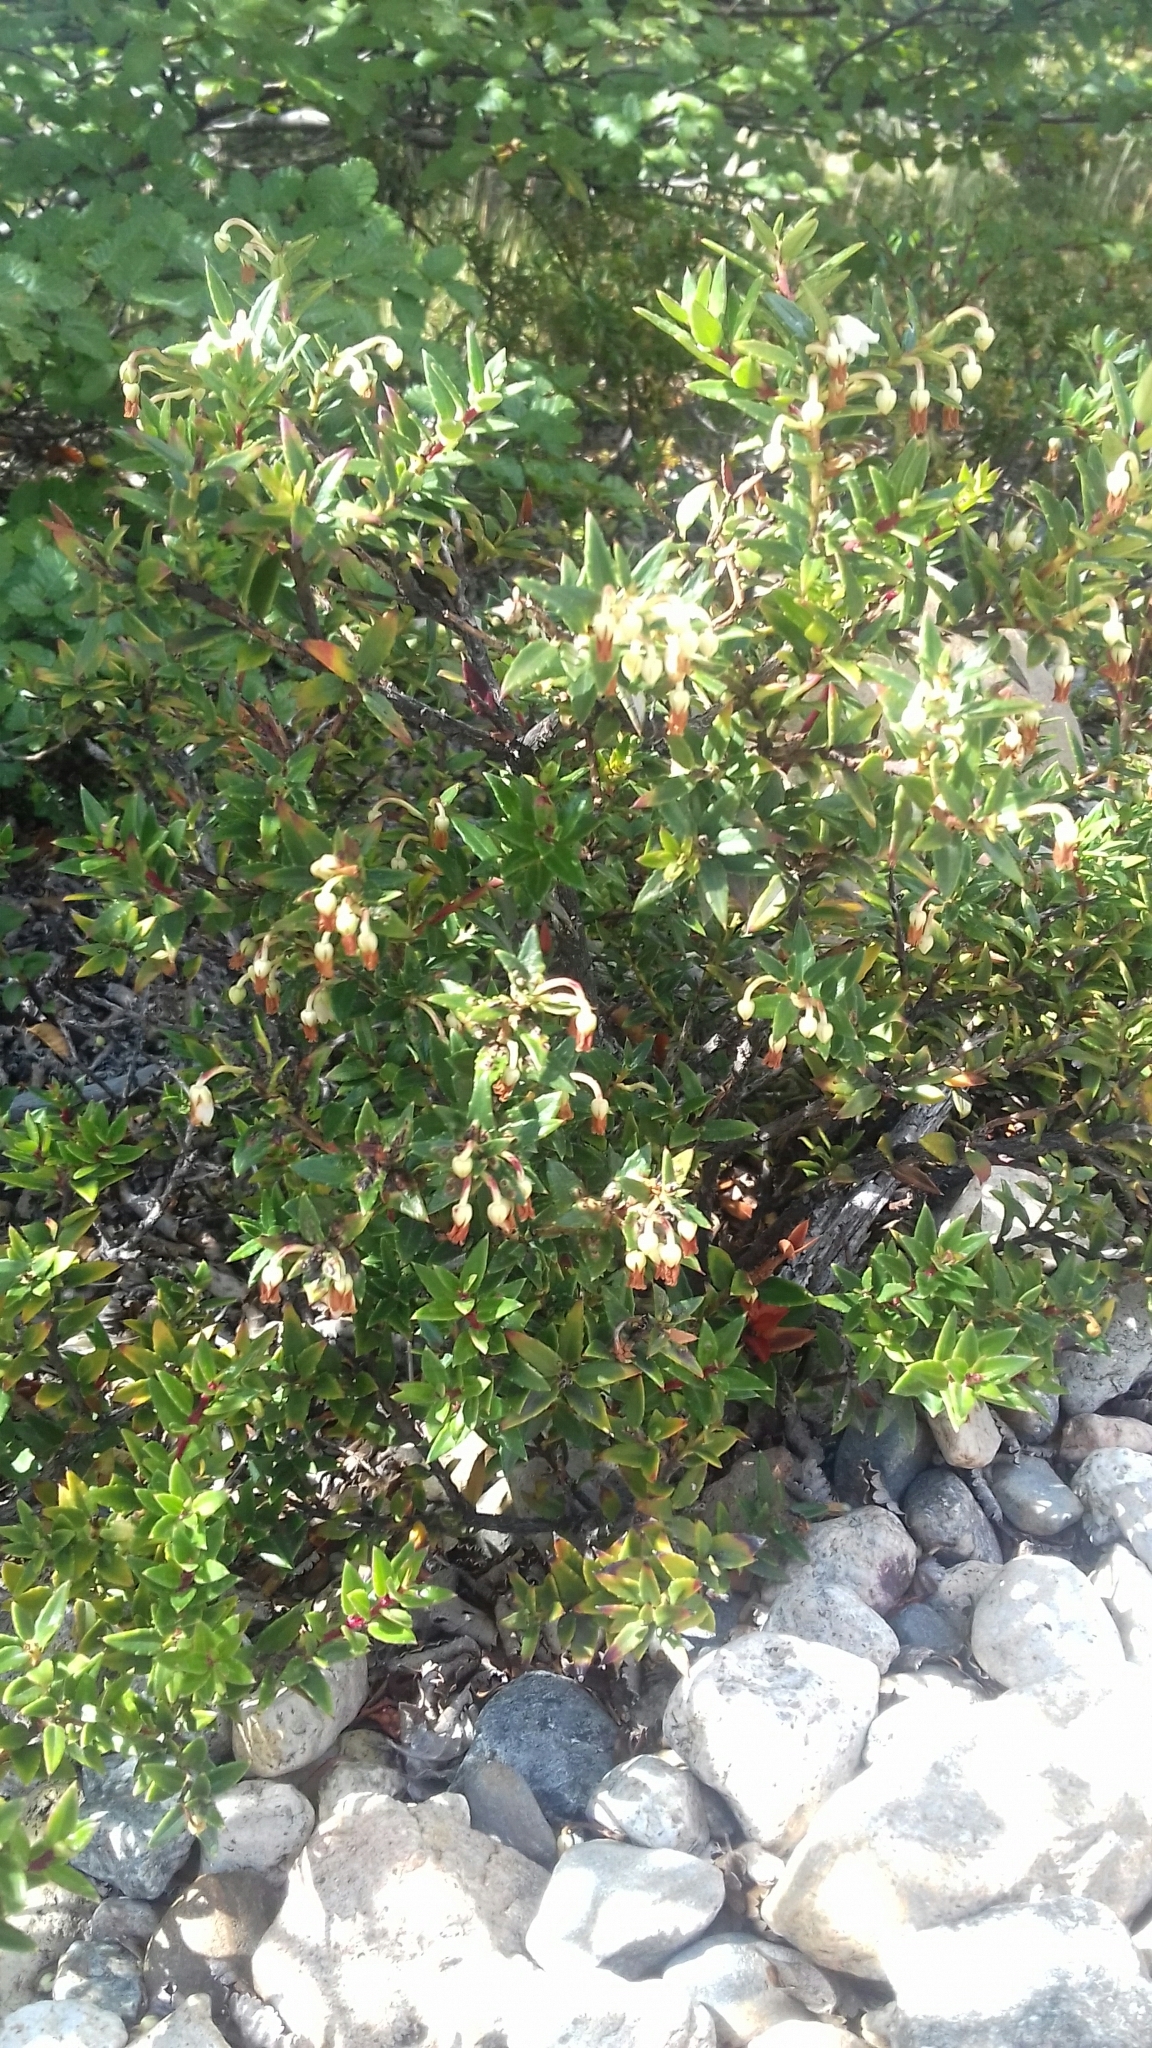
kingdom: Plantae
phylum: Tracheophyta
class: Magnoliopsida
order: Ericales
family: Ericaceae
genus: Gaultheria
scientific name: Gaultheria mucronata
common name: Prickly heath
